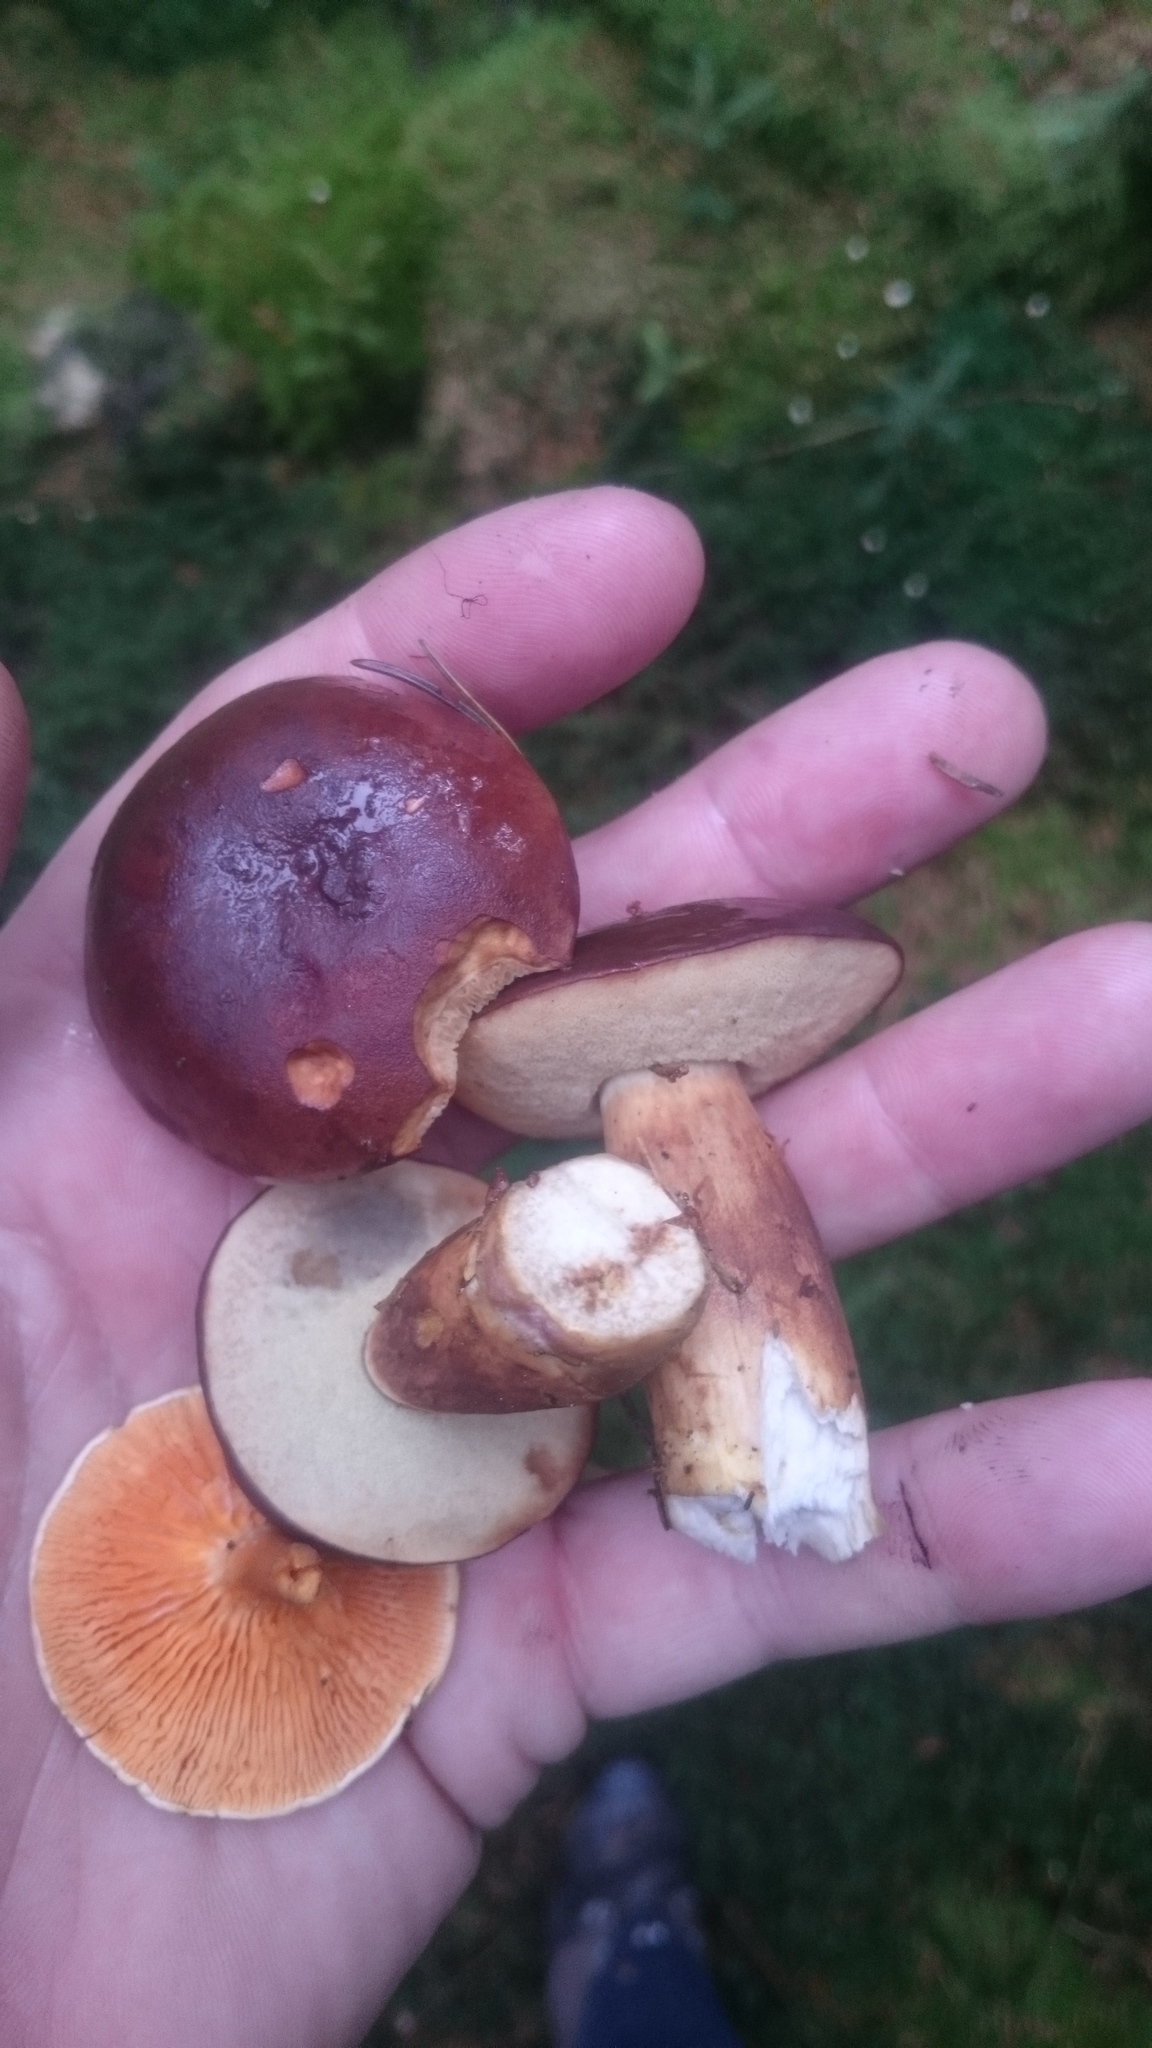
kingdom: Fungi
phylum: Basidiomycota
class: Agaricomycetes
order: Boletales
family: Boletaceae
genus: Imleria
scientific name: Imleria badia
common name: Bay bolete
